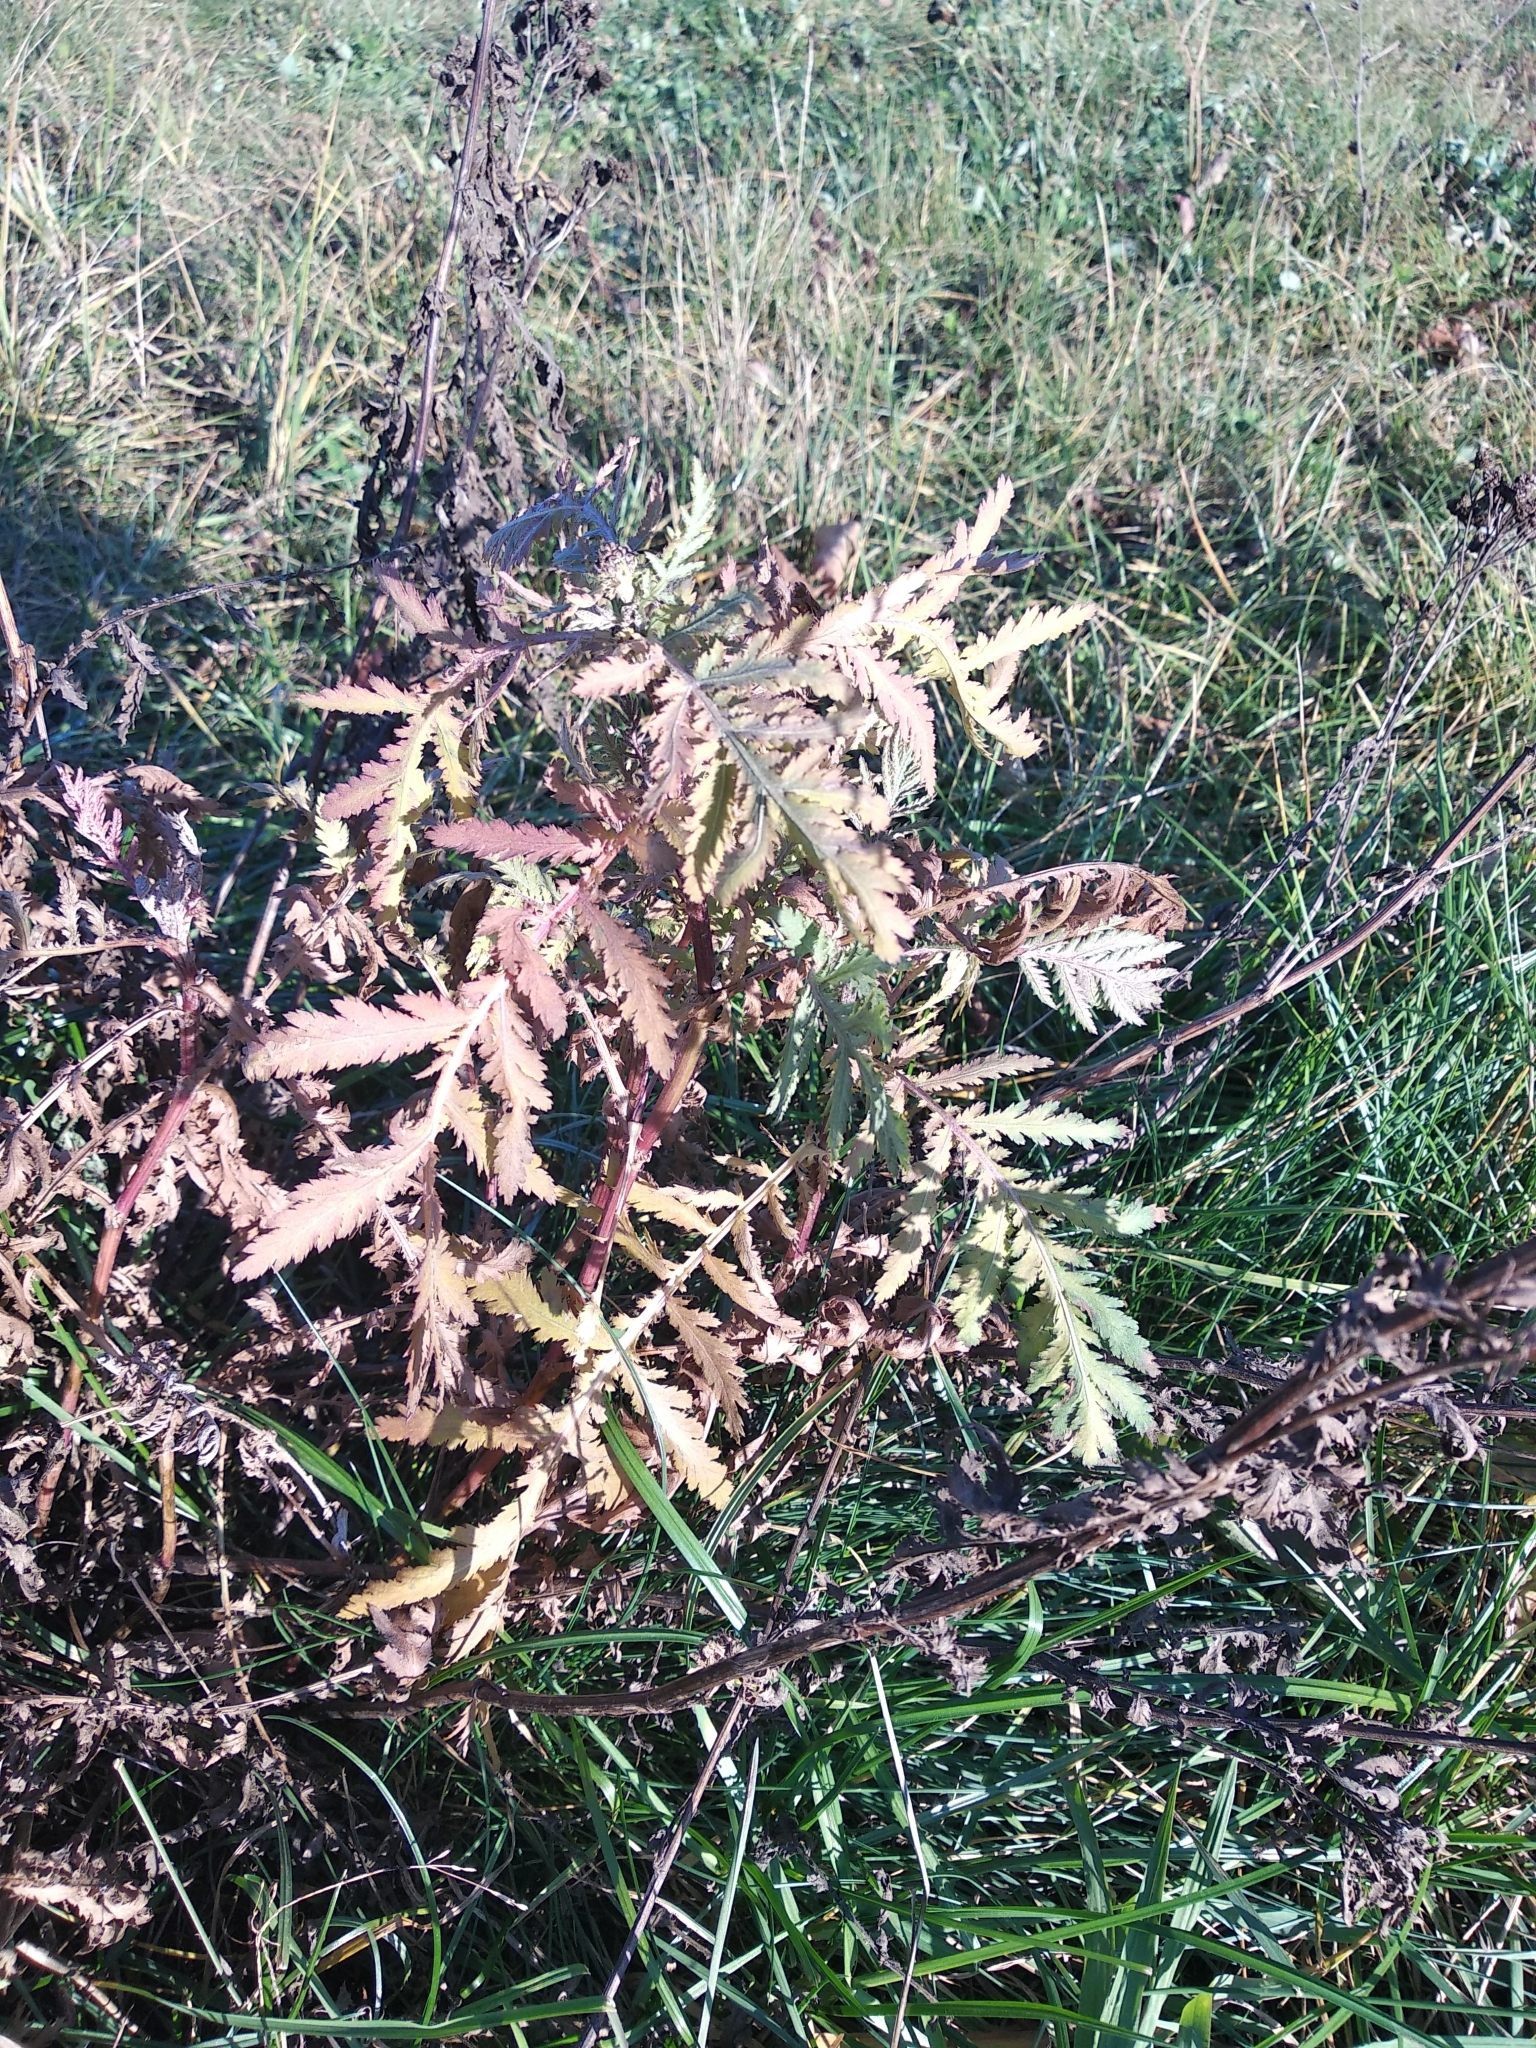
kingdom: Plantae
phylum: Tracheophyta
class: Magnoliopsida
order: Asterales
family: Asteraceae
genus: Tanacetum
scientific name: Tanacetum vulgare
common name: Common tansy
